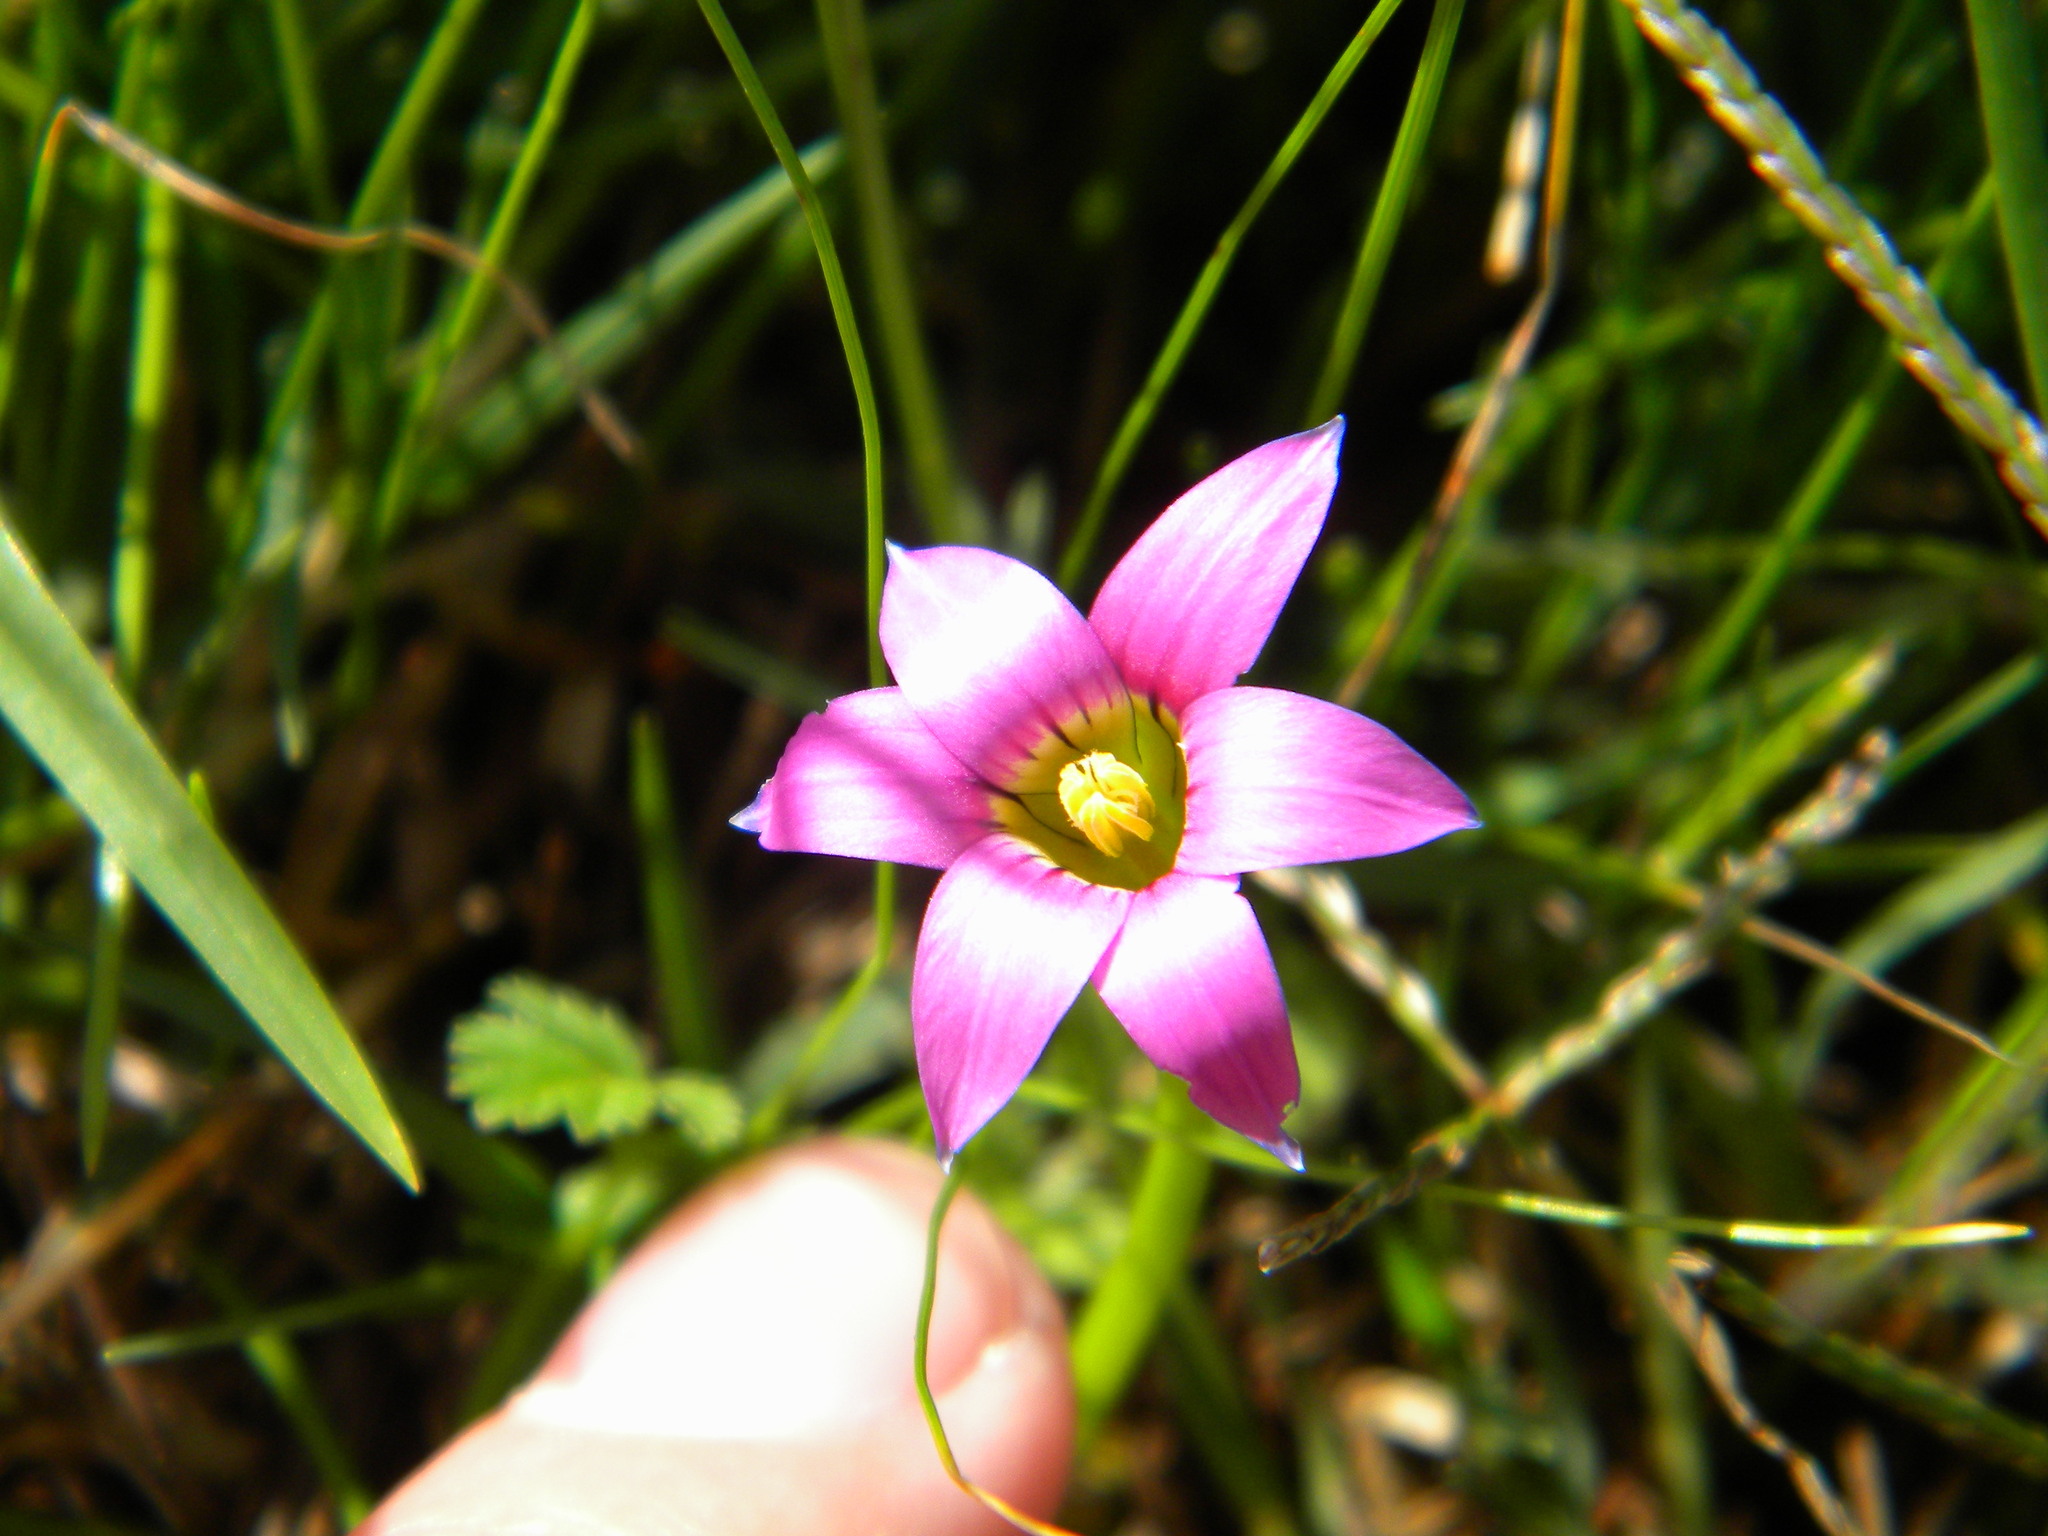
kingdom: Plantae
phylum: Tracheophyta
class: Liliopsida
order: Asparagales
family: Iridaceae
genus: Romulea
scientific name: Romulea rosea
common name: Oniongrass
